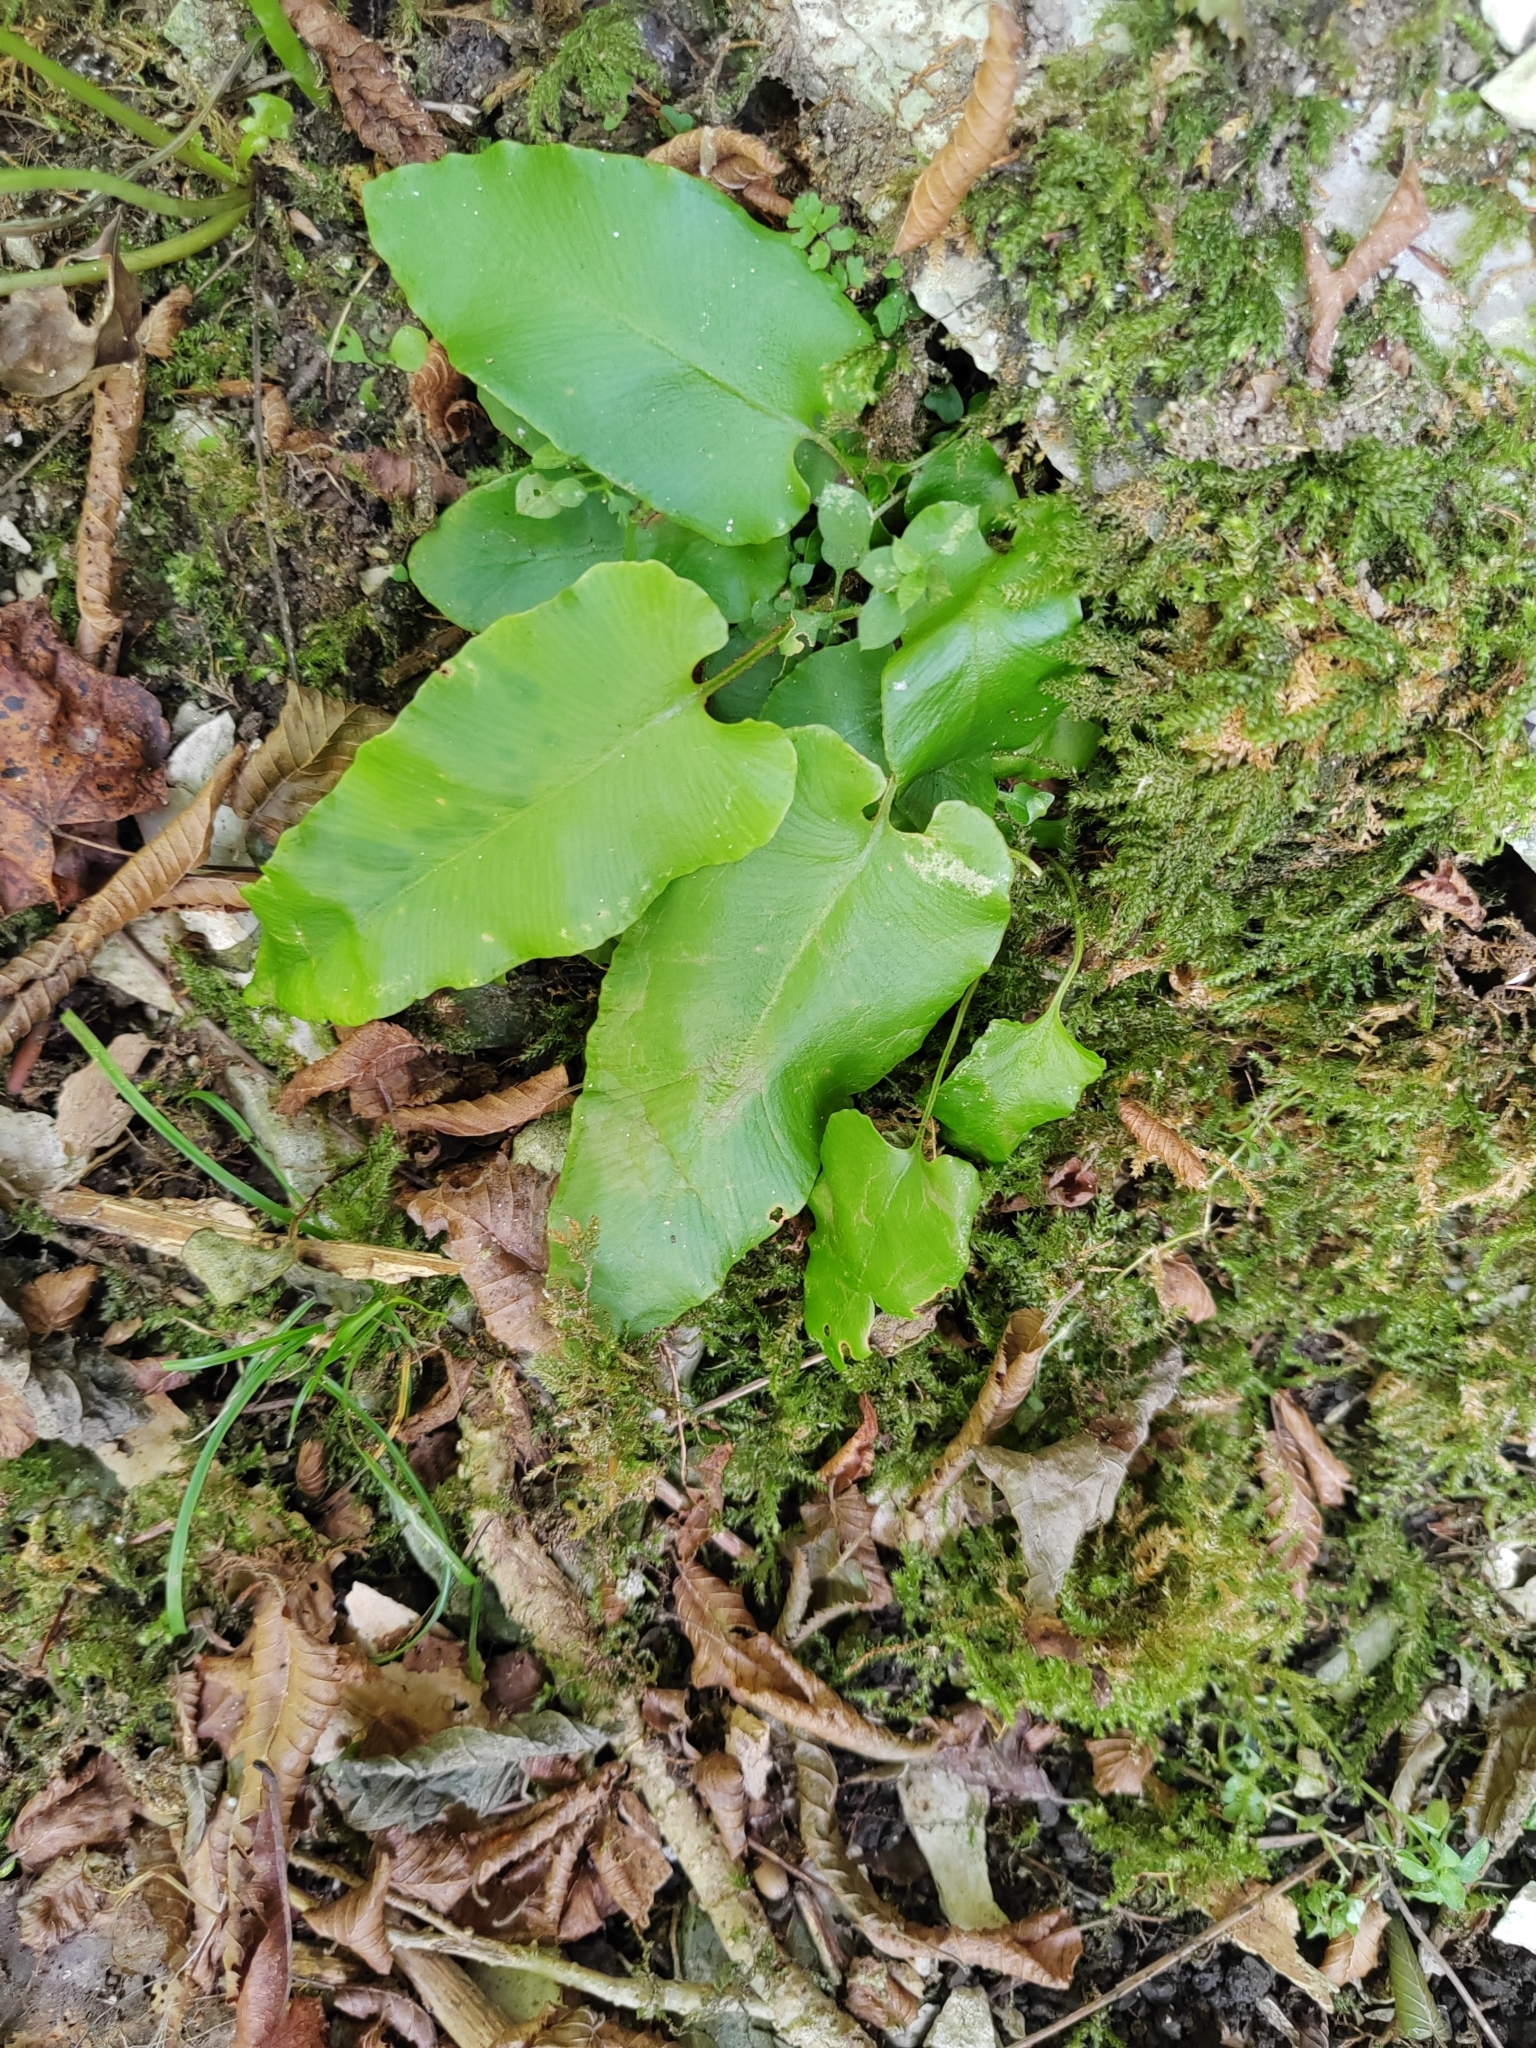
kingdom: Plantae
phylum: Tracheophyta
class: Polypodiopsida
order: Polypodiales
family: Aspleniaceae
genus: Asplenium
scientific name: Asplenium scolopendrium
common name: Hart's-tongue fern
